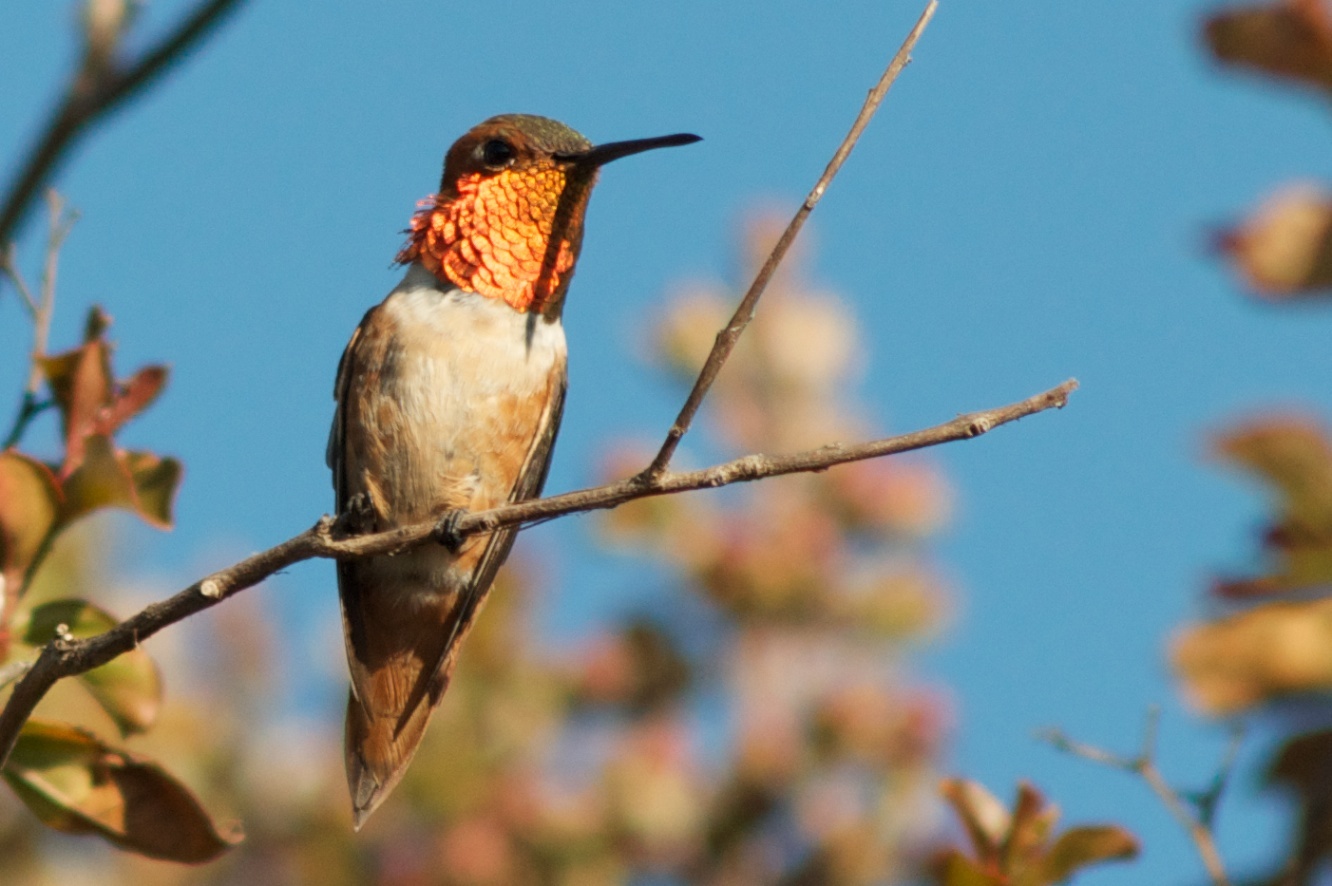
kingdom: Animalia
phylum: Chordata
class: Aves
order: Apodiformes
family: Trochilidae
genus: Selasphorus
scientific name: Selasphorus sasin
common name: Allen's hummingbird
